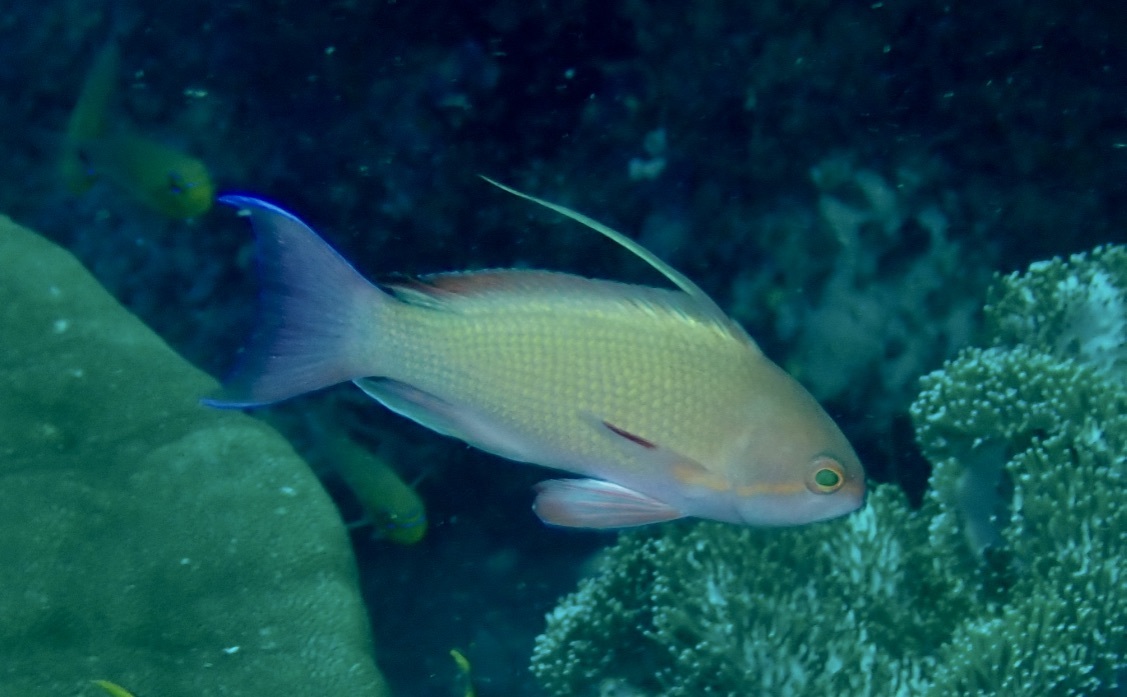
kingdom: Animalia
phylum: Chordata
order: Perciformes
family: Serranidae
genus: Pseudanthias
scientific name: Pseudanthias squamipinnis
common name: Scalefin anthias
